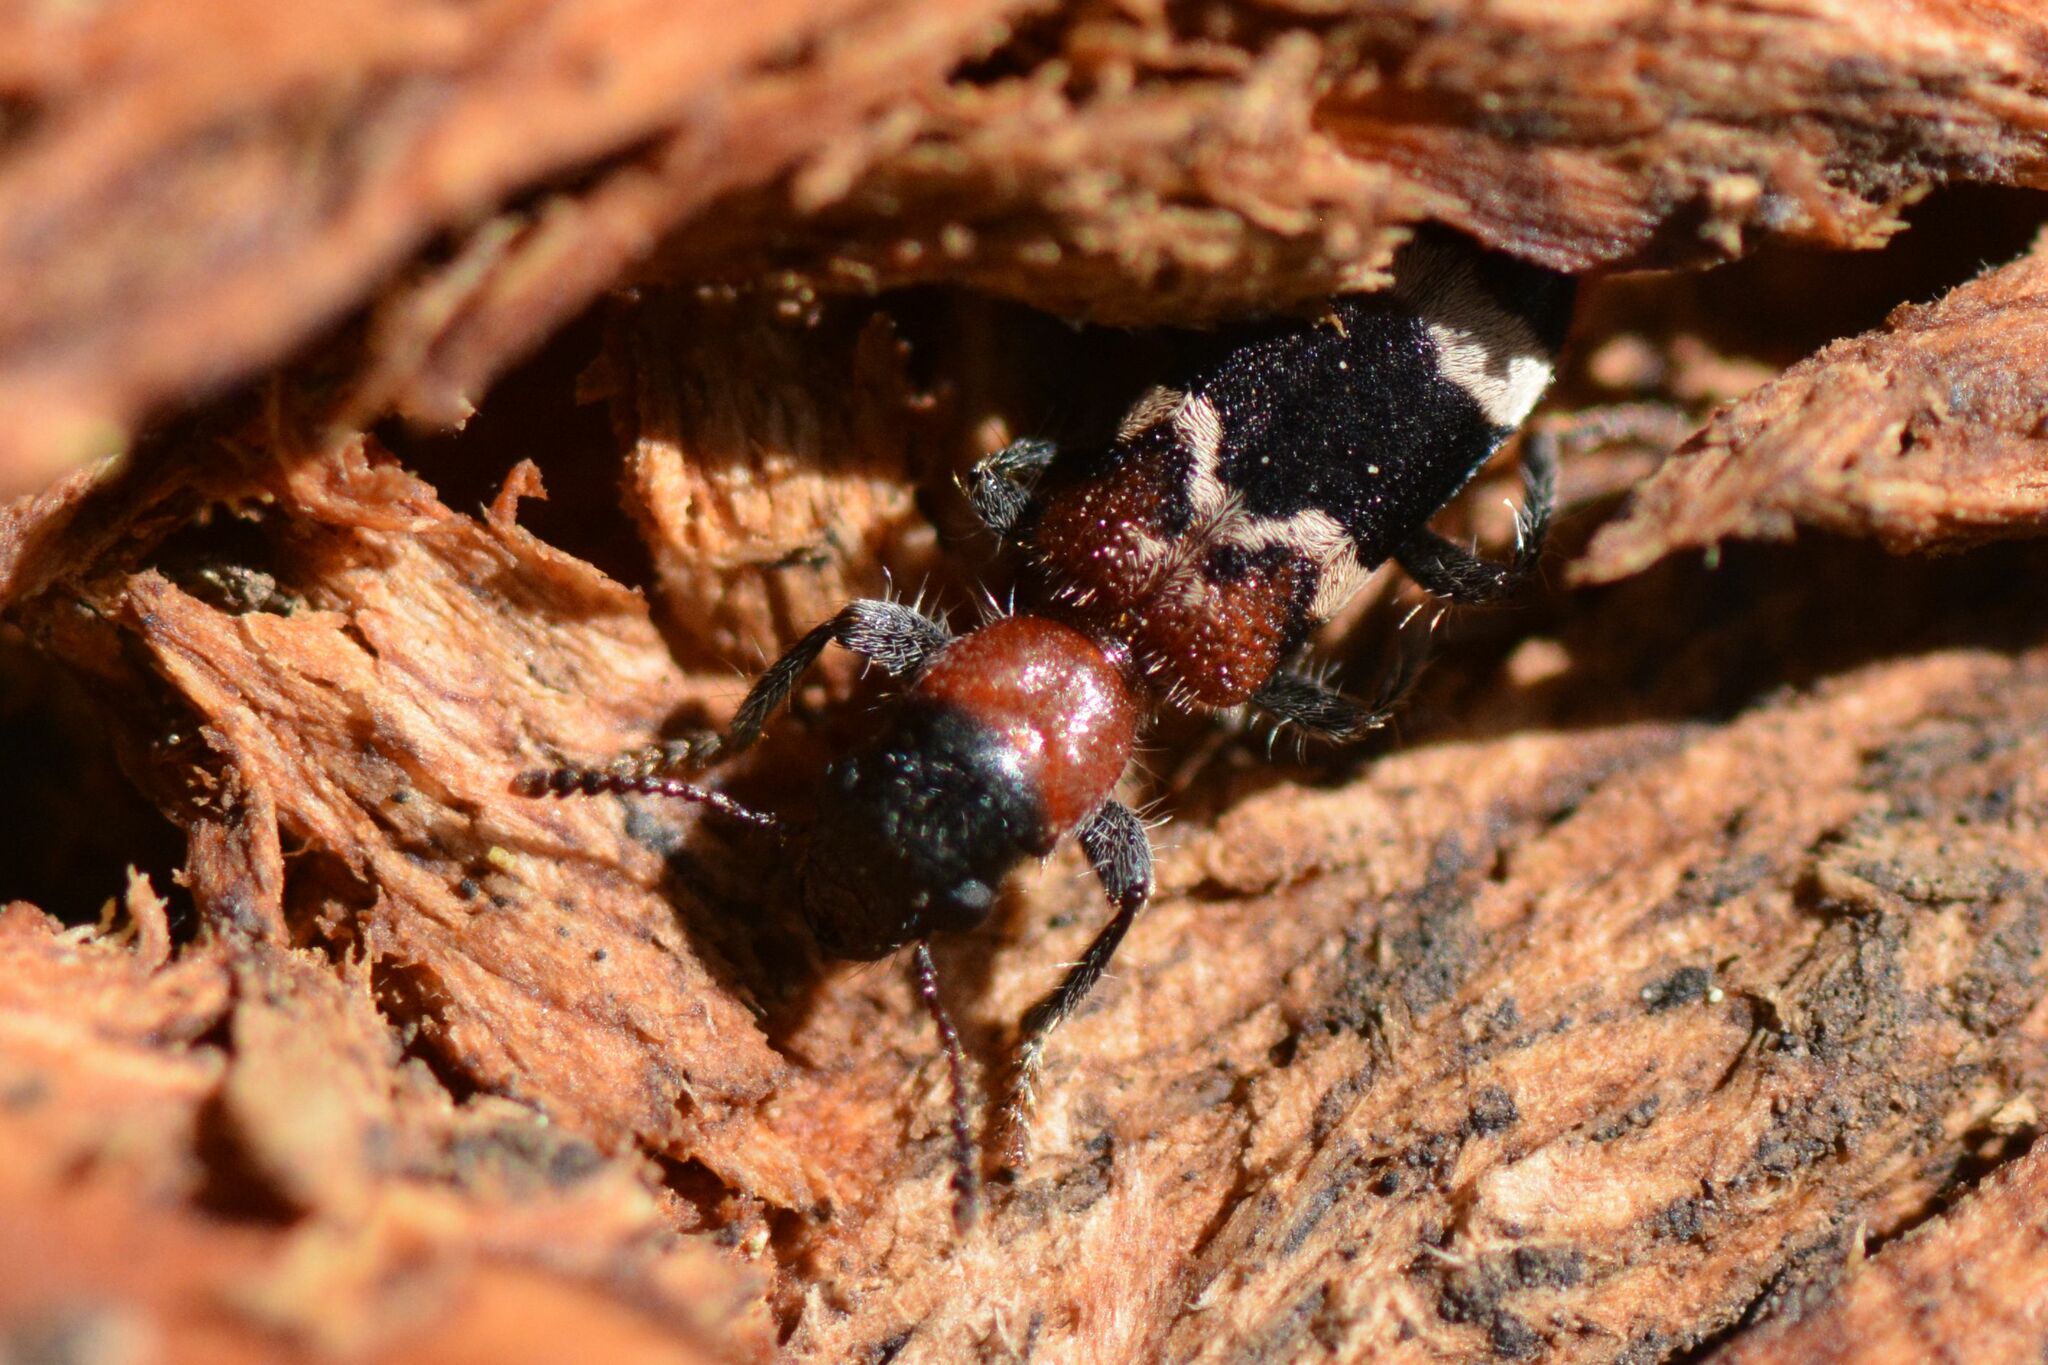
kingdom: Animalia
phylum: Arthropoda
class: Insecta
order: Coleoptera
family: Cleridae
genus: Thanasimus
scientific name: Thanasimus formicarius
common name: Ant beetle
